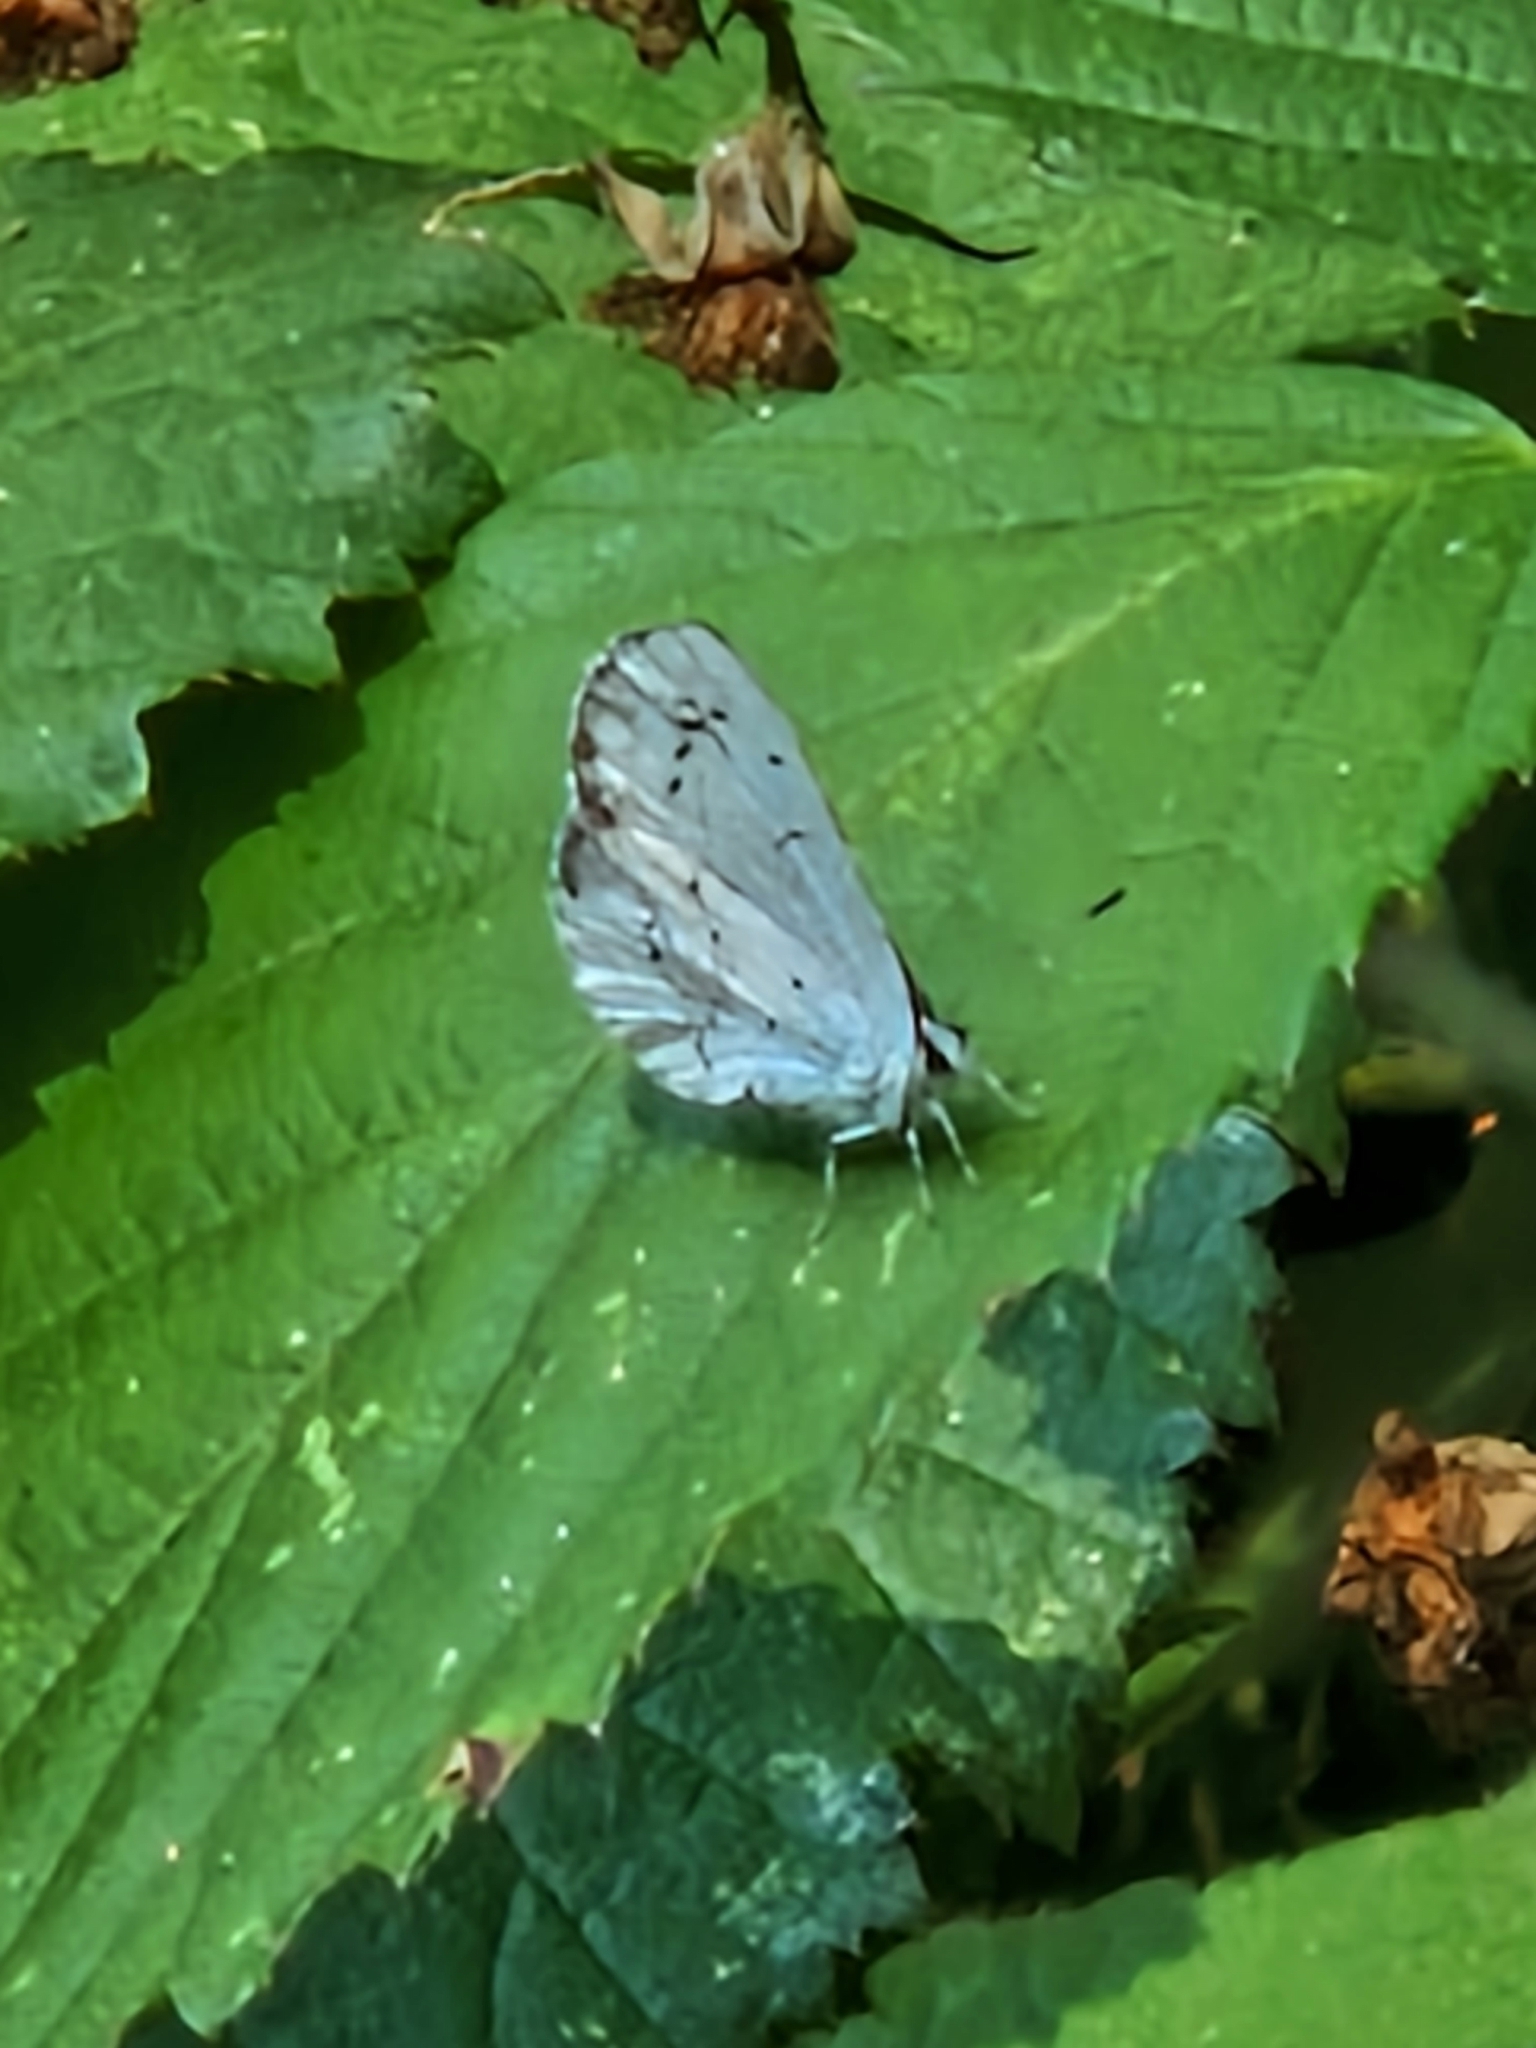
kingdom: Animalia
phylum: Arthropoda
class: Insecta
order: Lepidoptera
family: Lycaenidae
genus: Celastrina
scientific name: Celastrina argiolus
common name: Holly blue
